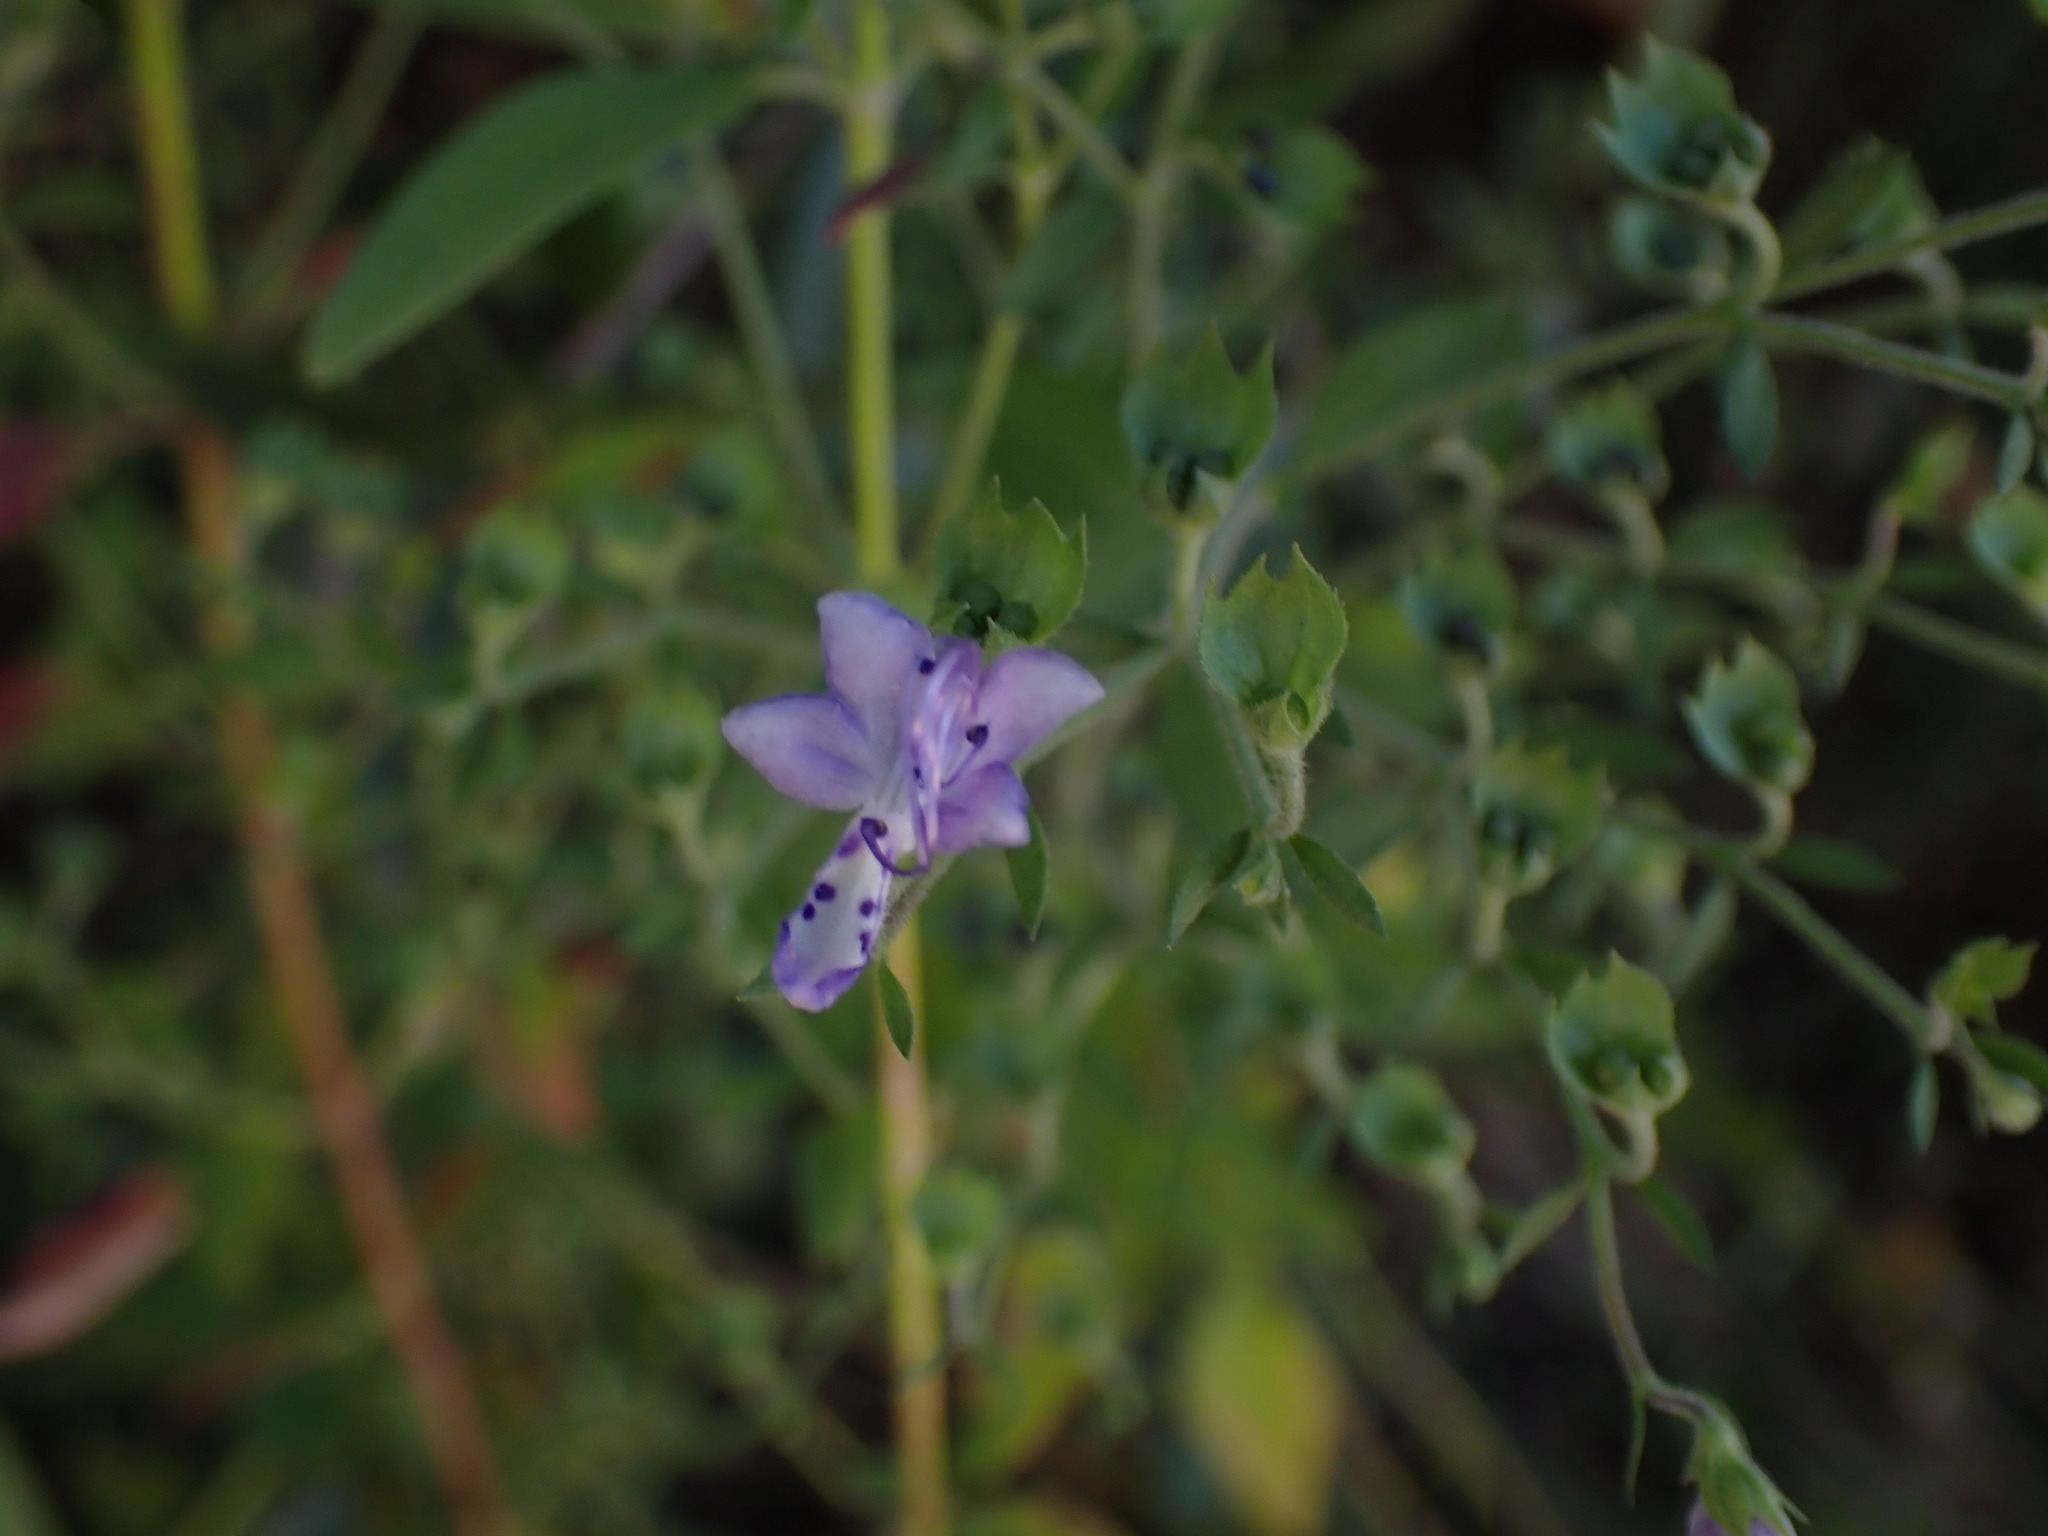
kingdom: Plantae
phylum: Tracheophyta
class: Magnoliopsida
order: Lamiales
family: Lamiaceae
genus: Trichostema
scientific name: Trichostema dichotomum
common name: Bastard pennyroyal
